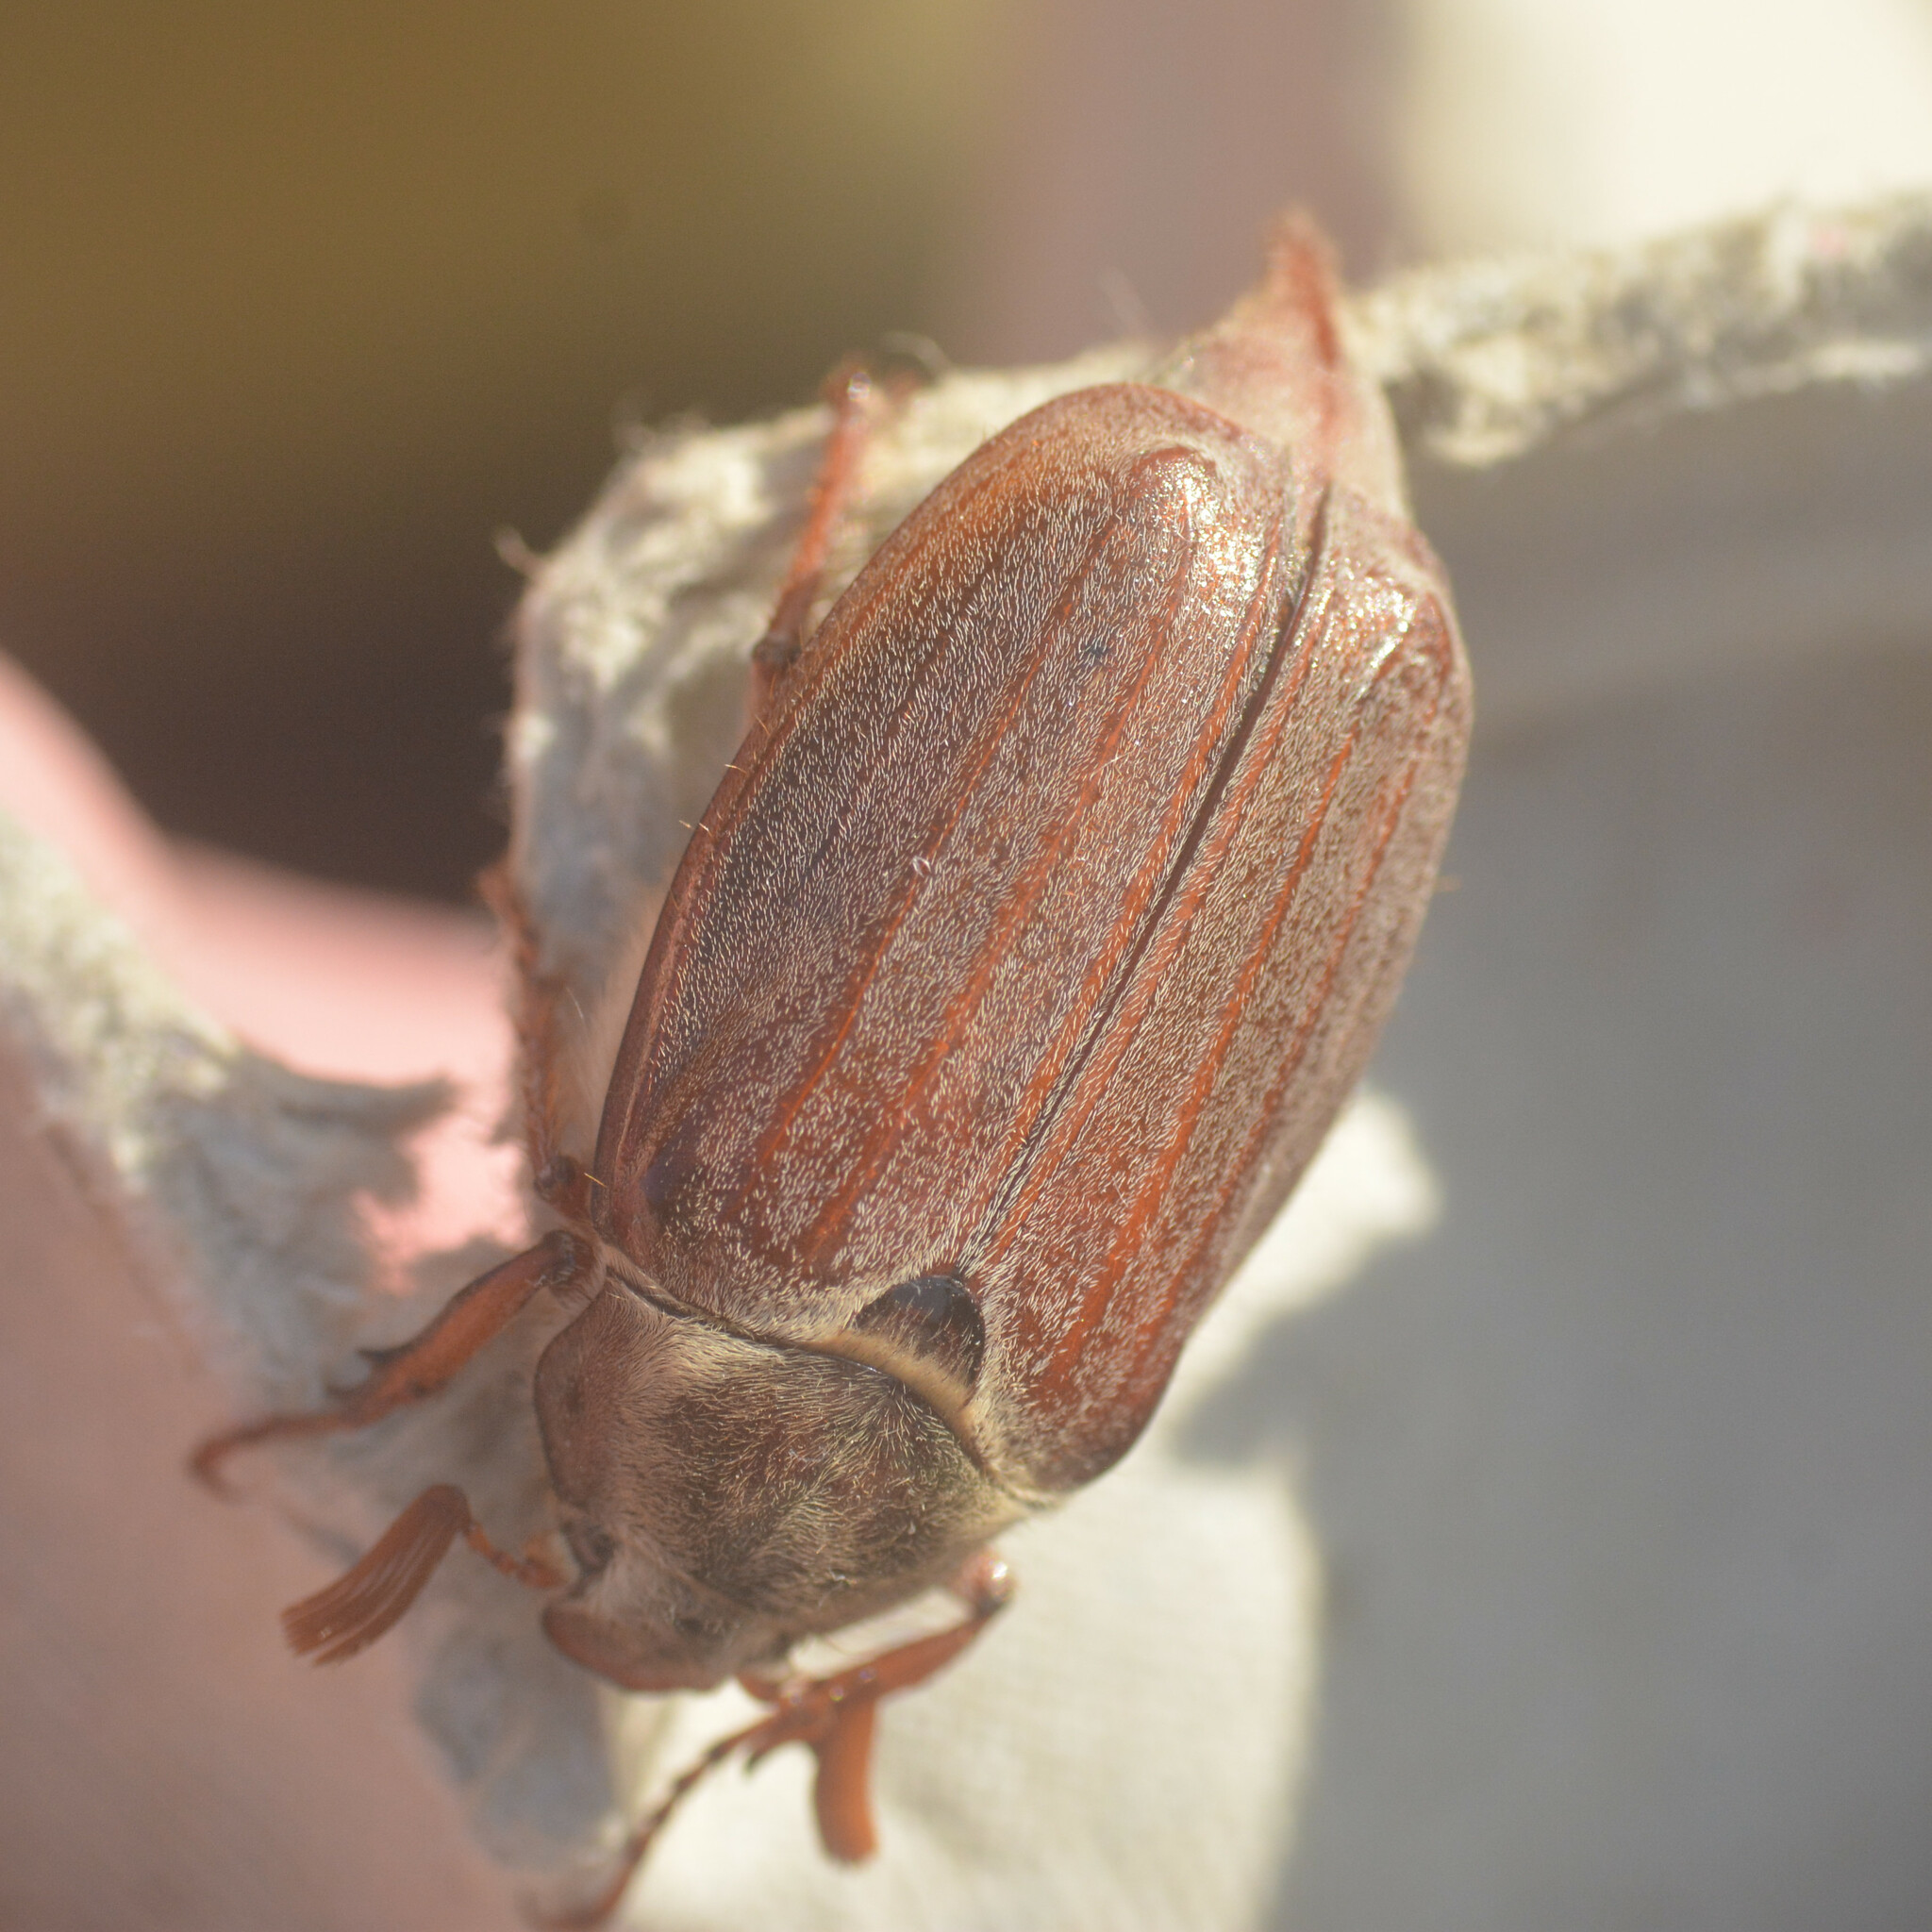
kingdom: Animalia
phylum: Arthropoda
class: Insecta
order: Coleoptera
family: Scarabaeidae
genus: Melolontha
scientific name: Melolontha melolontha
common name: Cockchafer maybeetle
